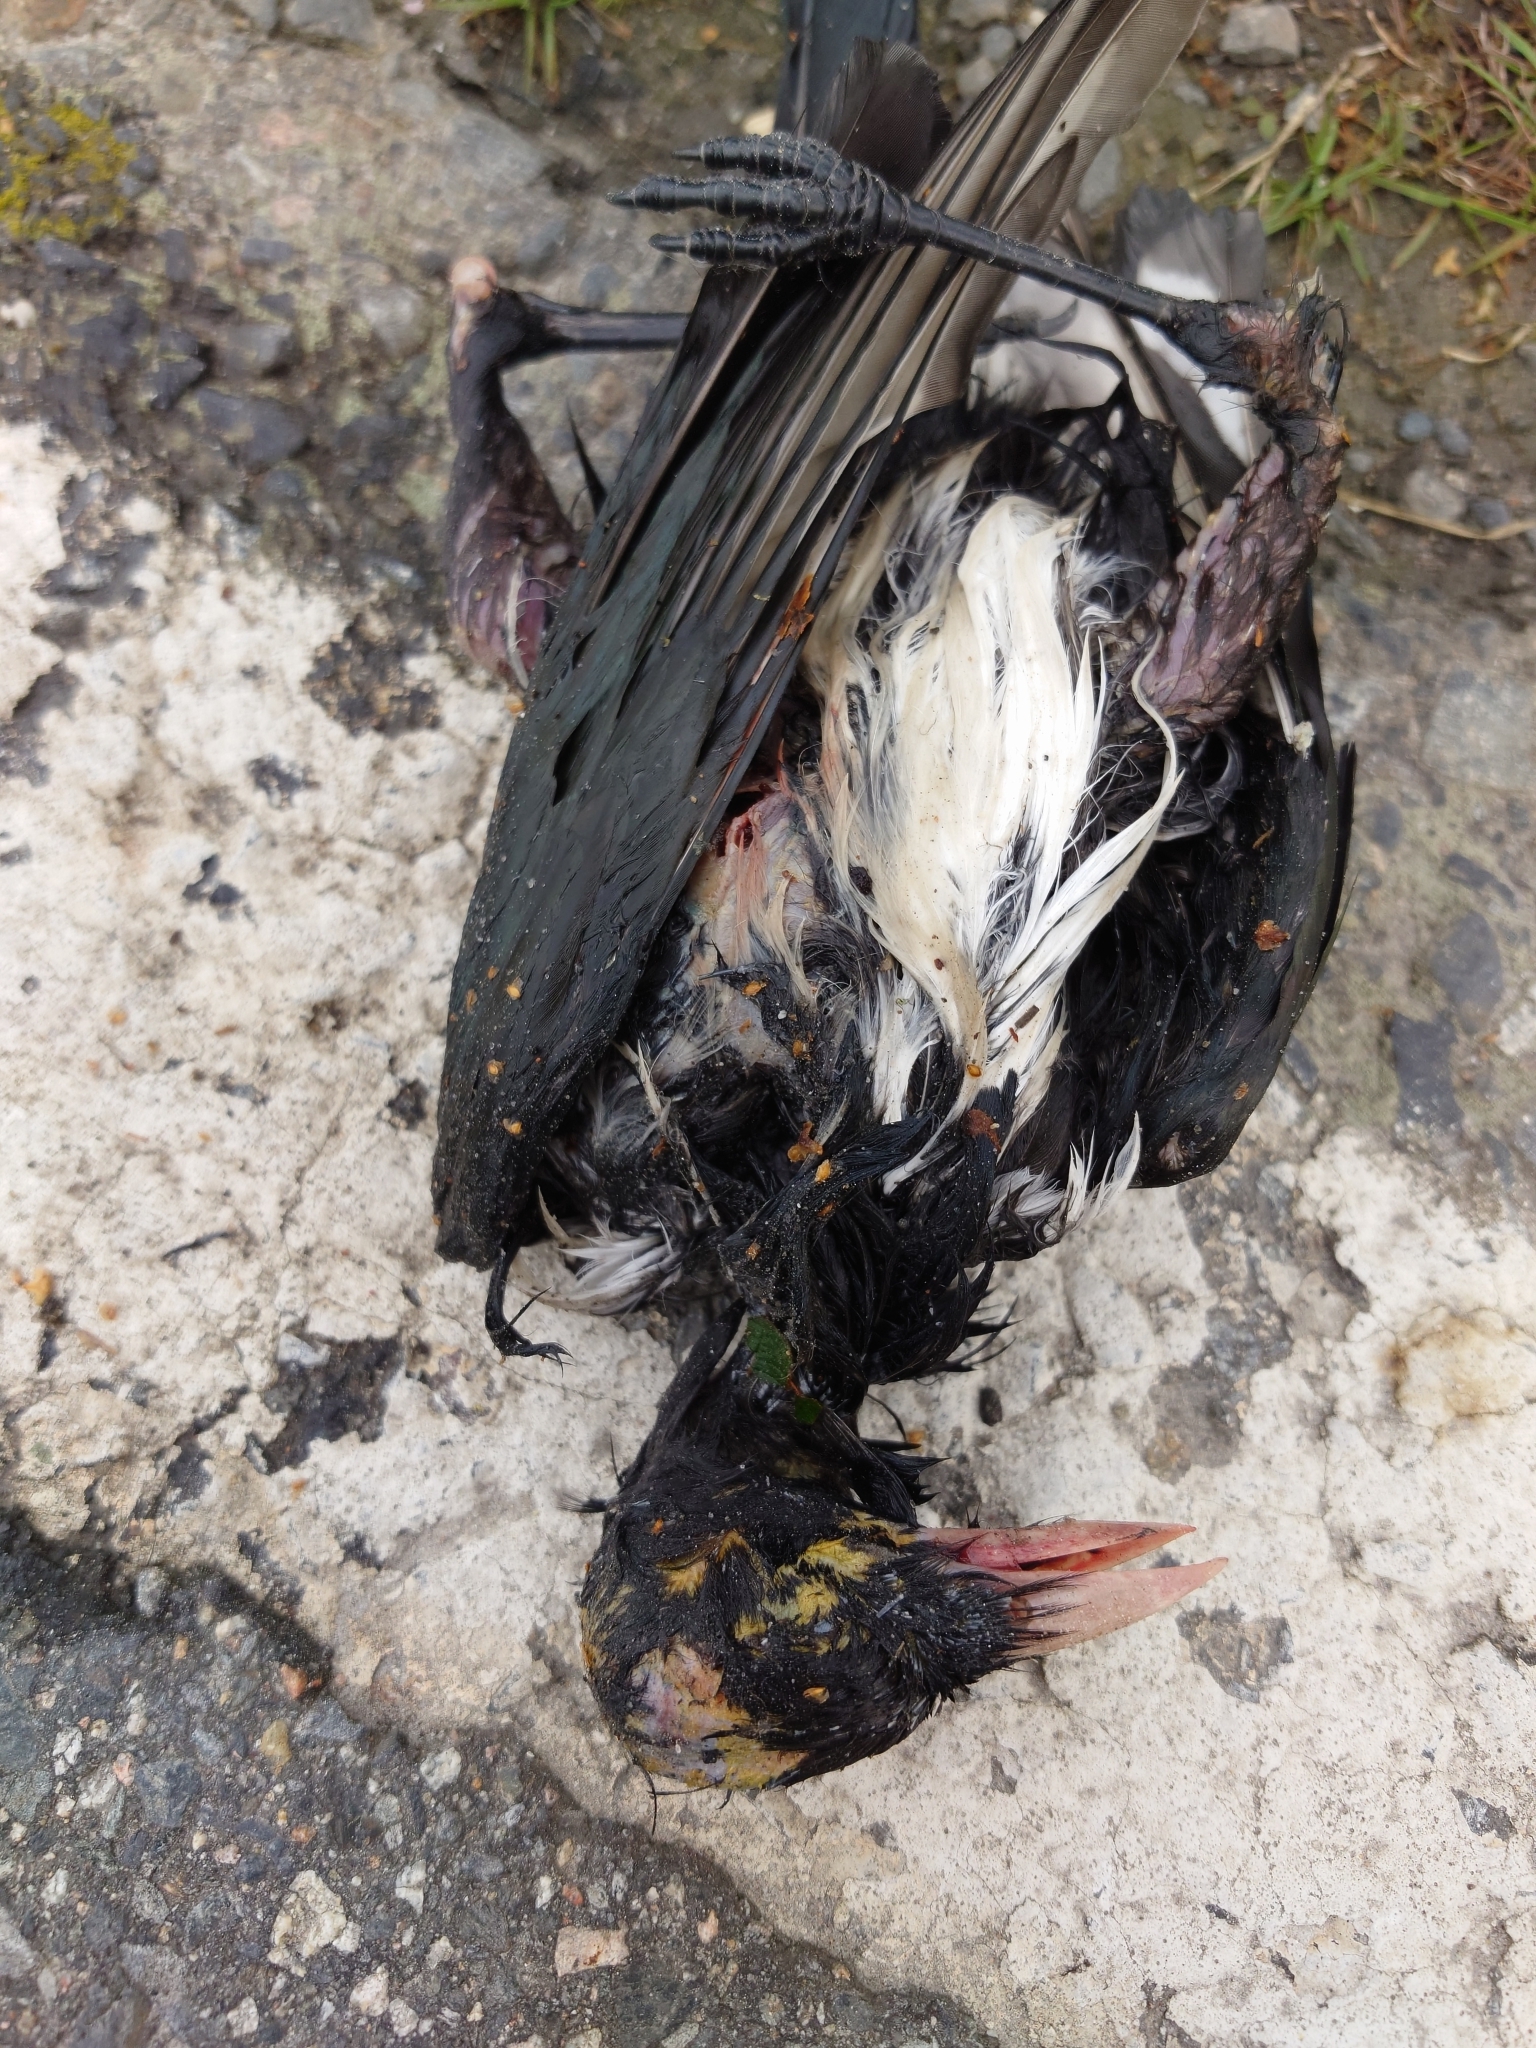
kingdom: Animalia
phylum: Chordata
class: Aves
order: Passeriformes
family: Corvidae
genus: Pica
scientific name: Pica pica
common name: Eurasian magpie
